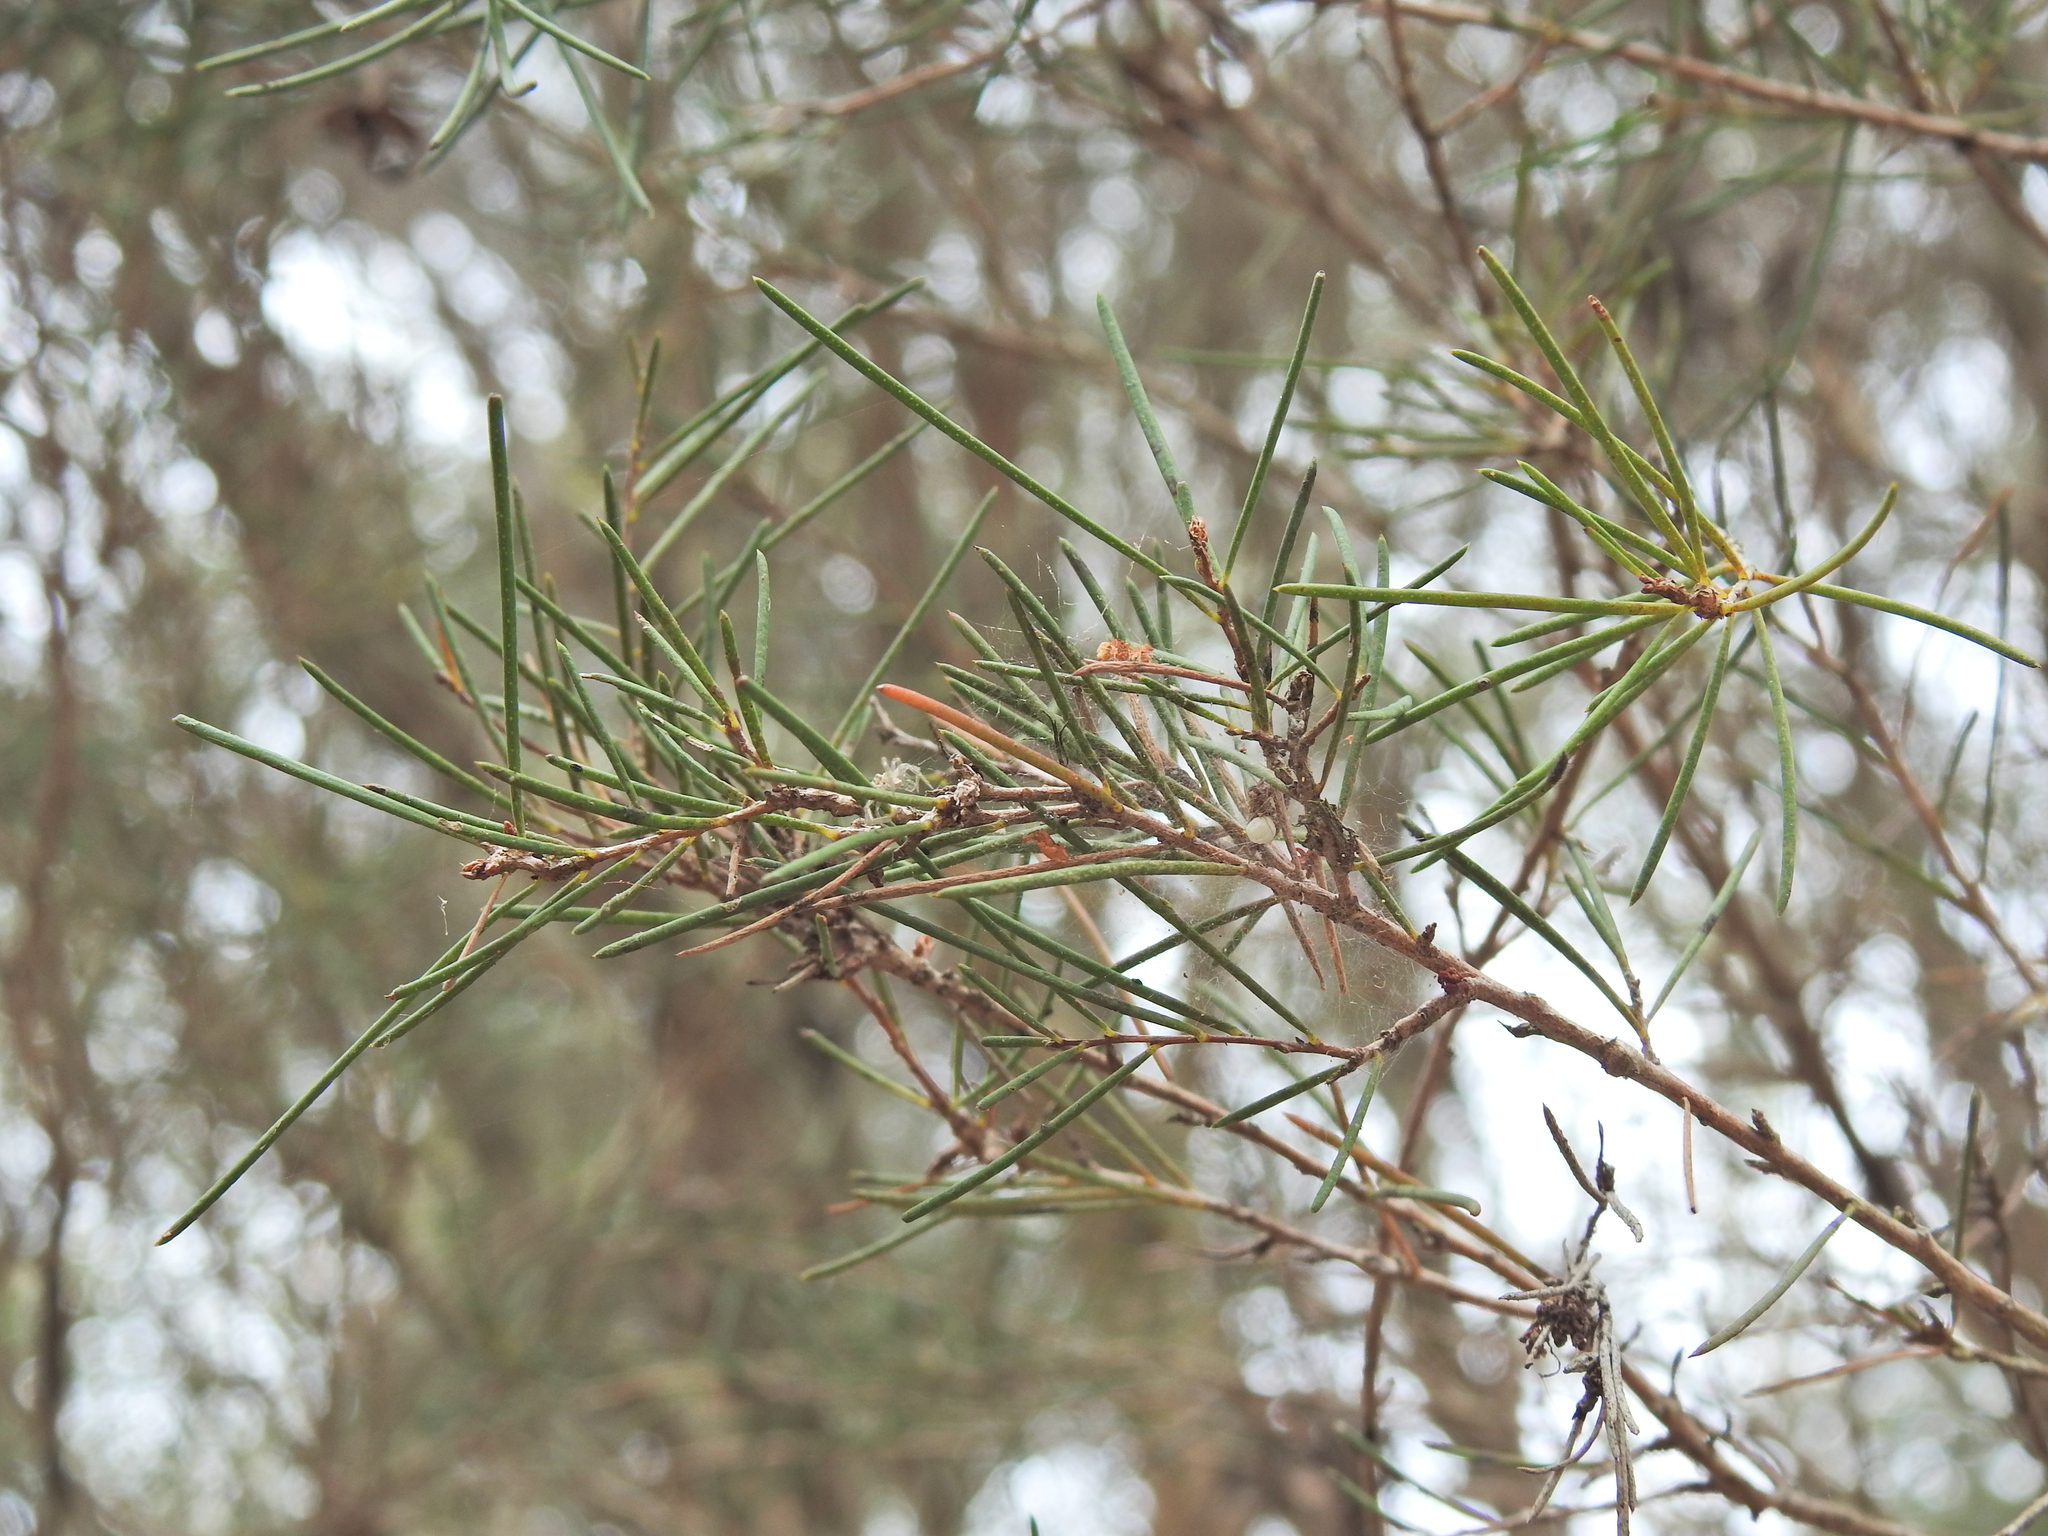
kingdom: Plantae
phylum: Tracheophyta
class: Magnoliopsida
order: Myrtales
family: Myrtaceae
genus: Melaleuca
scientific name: Melaleuca nodosa
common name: Prickly-leaf paperbark
